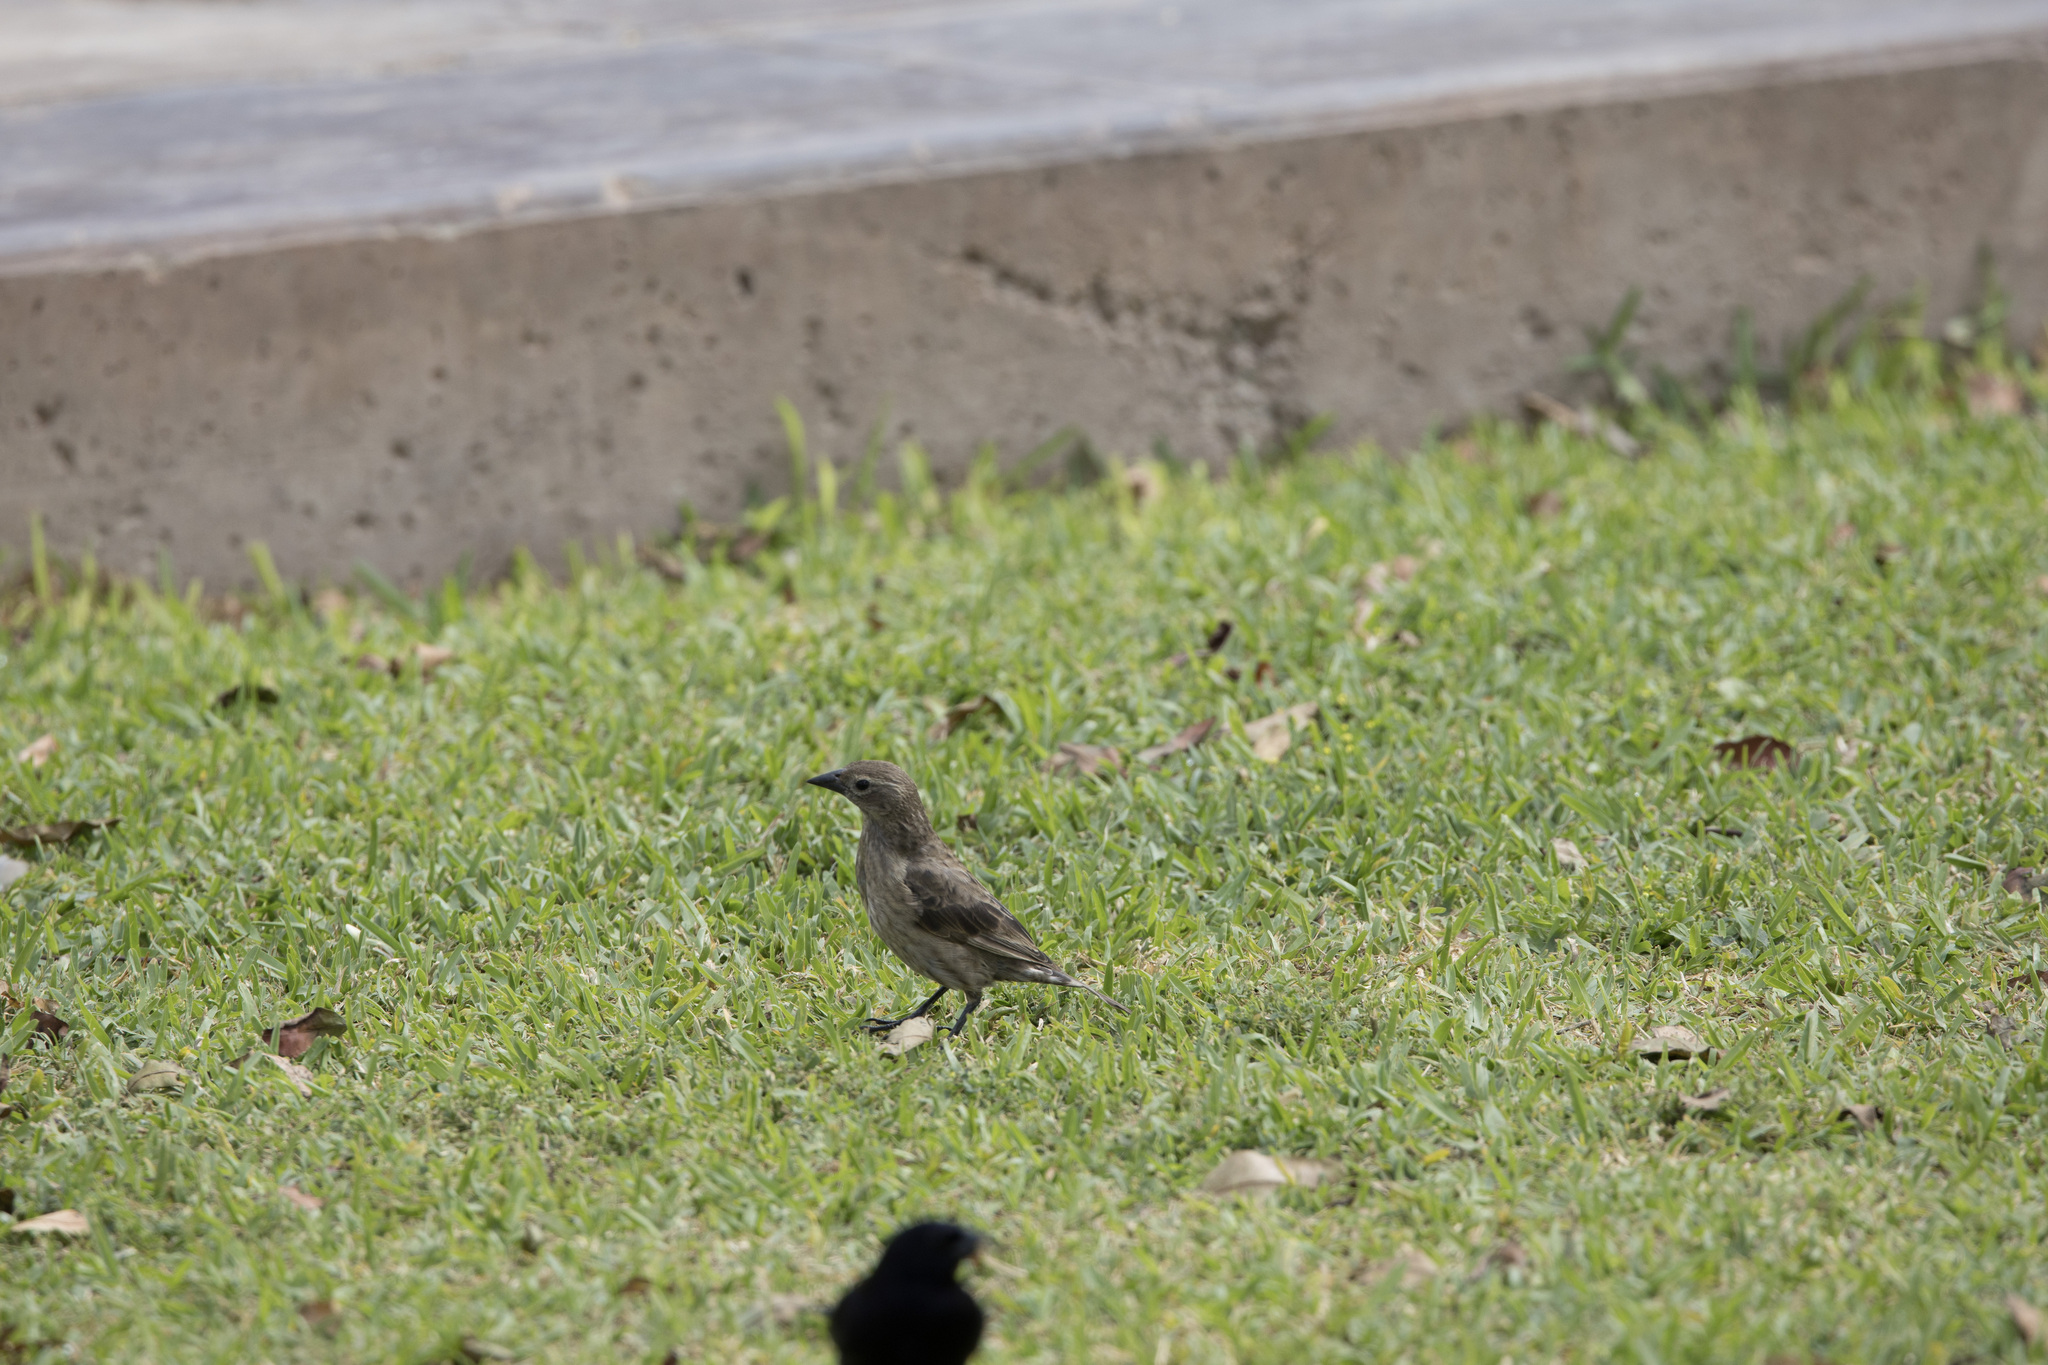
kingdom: Animalia
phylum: Chordata
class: Aves
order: Passeriformes
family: Icteridae
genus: Molothrus
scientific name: Molothrus bonariensis
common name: Shiny cowbird
